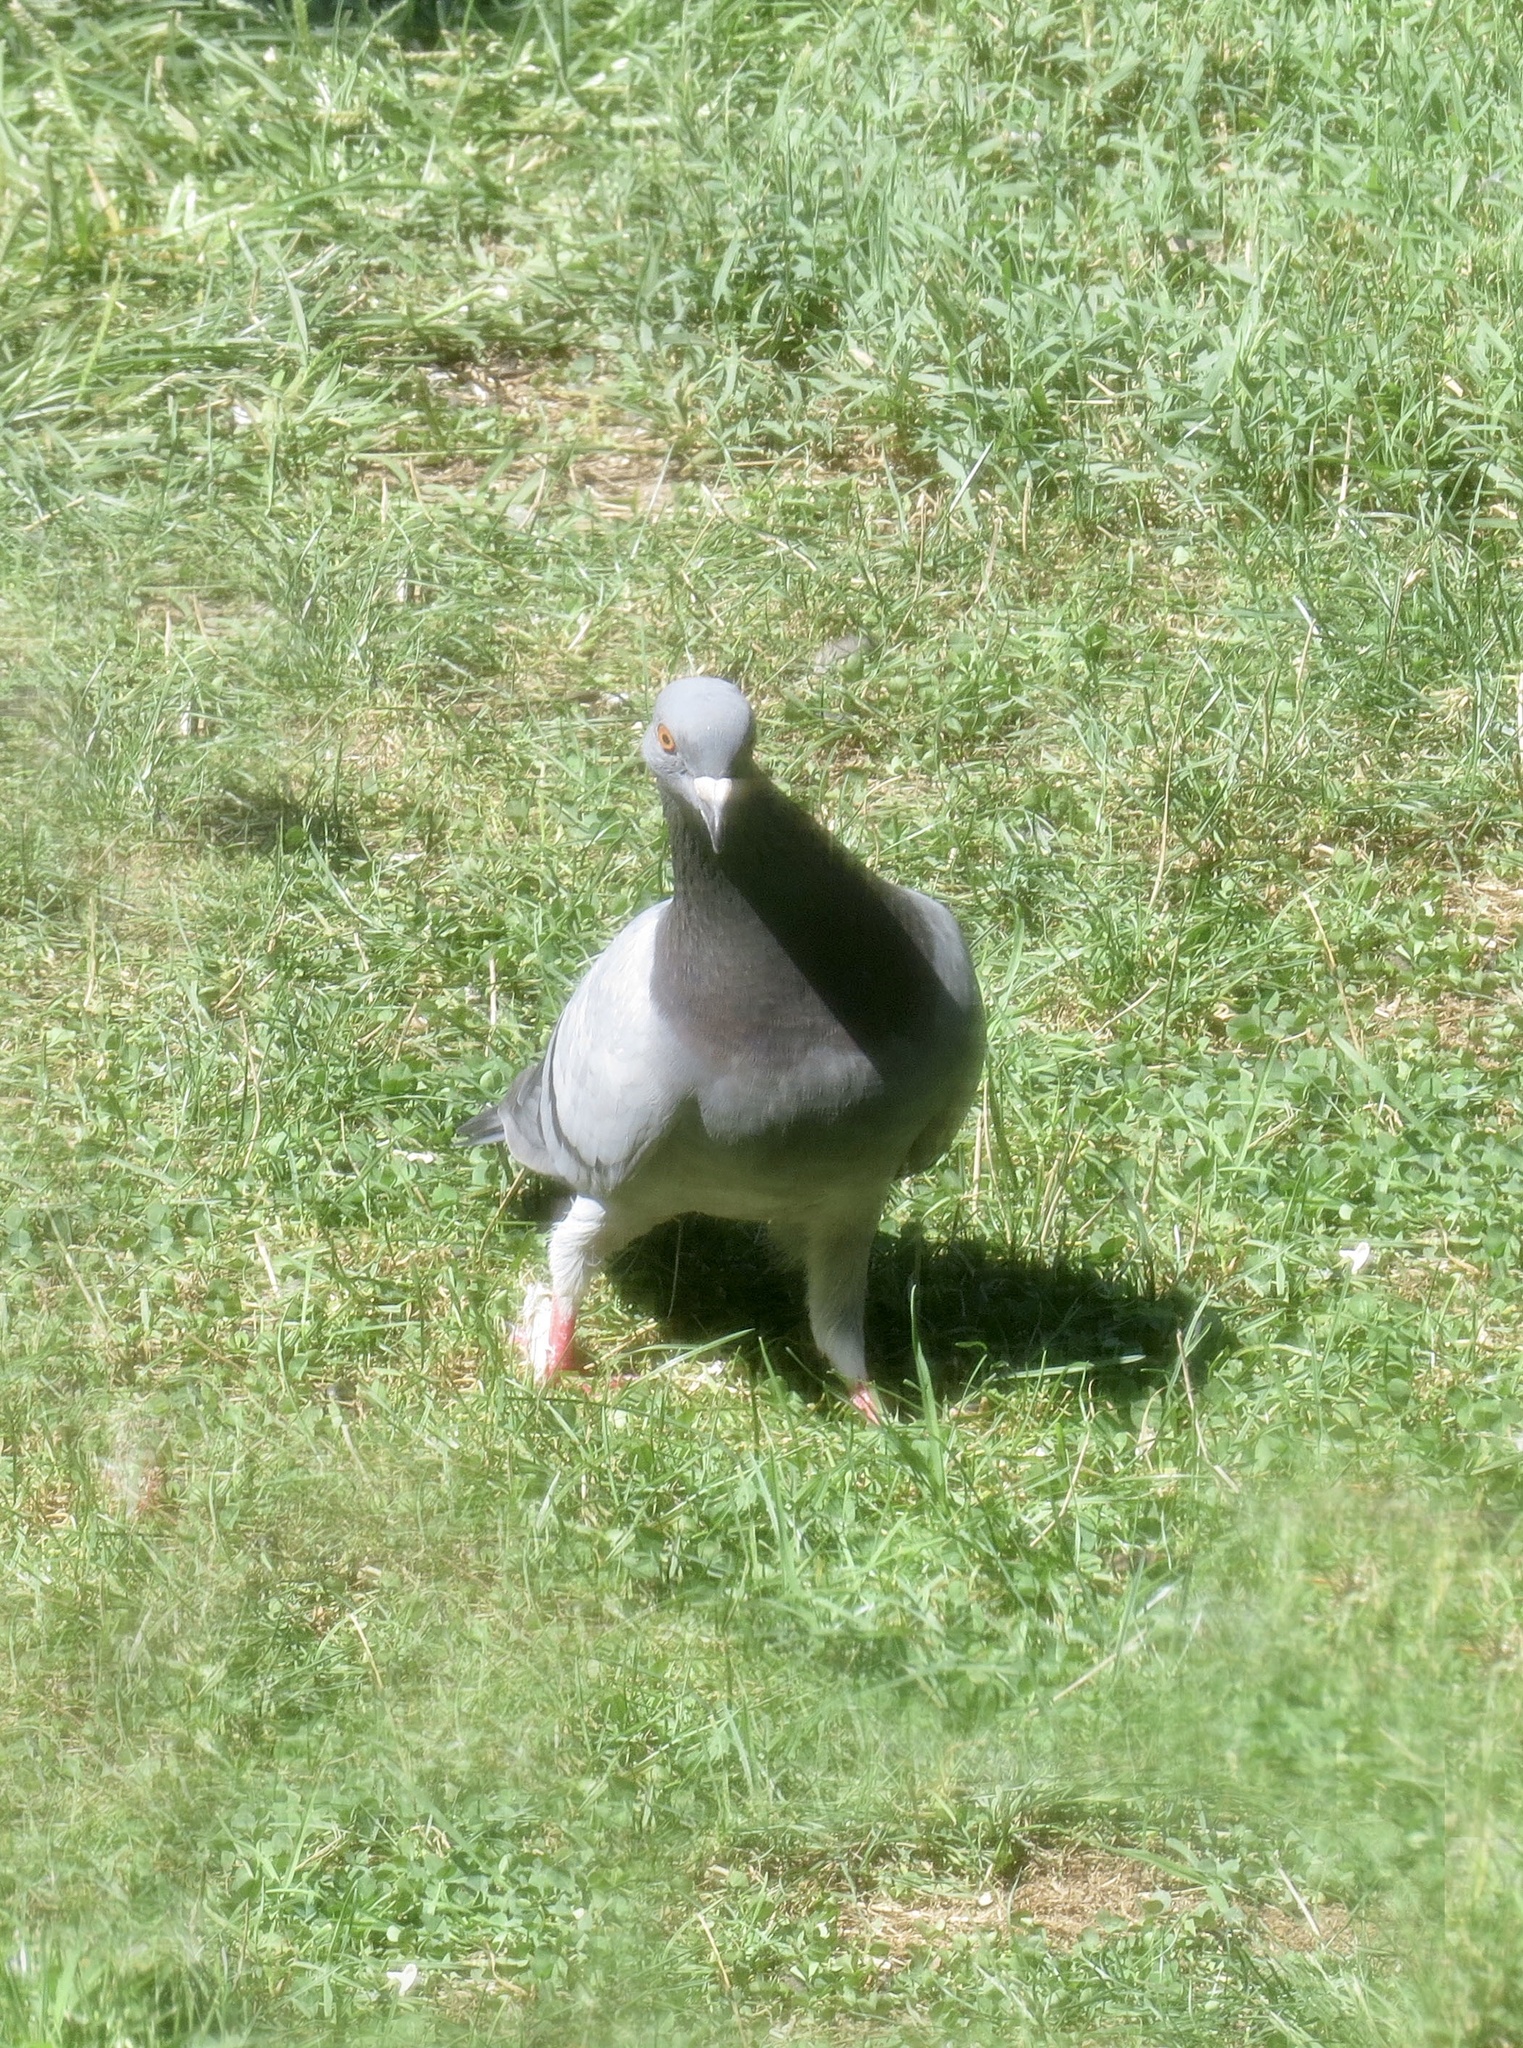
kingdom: Animalia
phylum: Chordata
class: Aves
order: Columbiformes
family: Columbidae
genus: Columba
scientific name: Columba livia
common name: Rock pigeon
